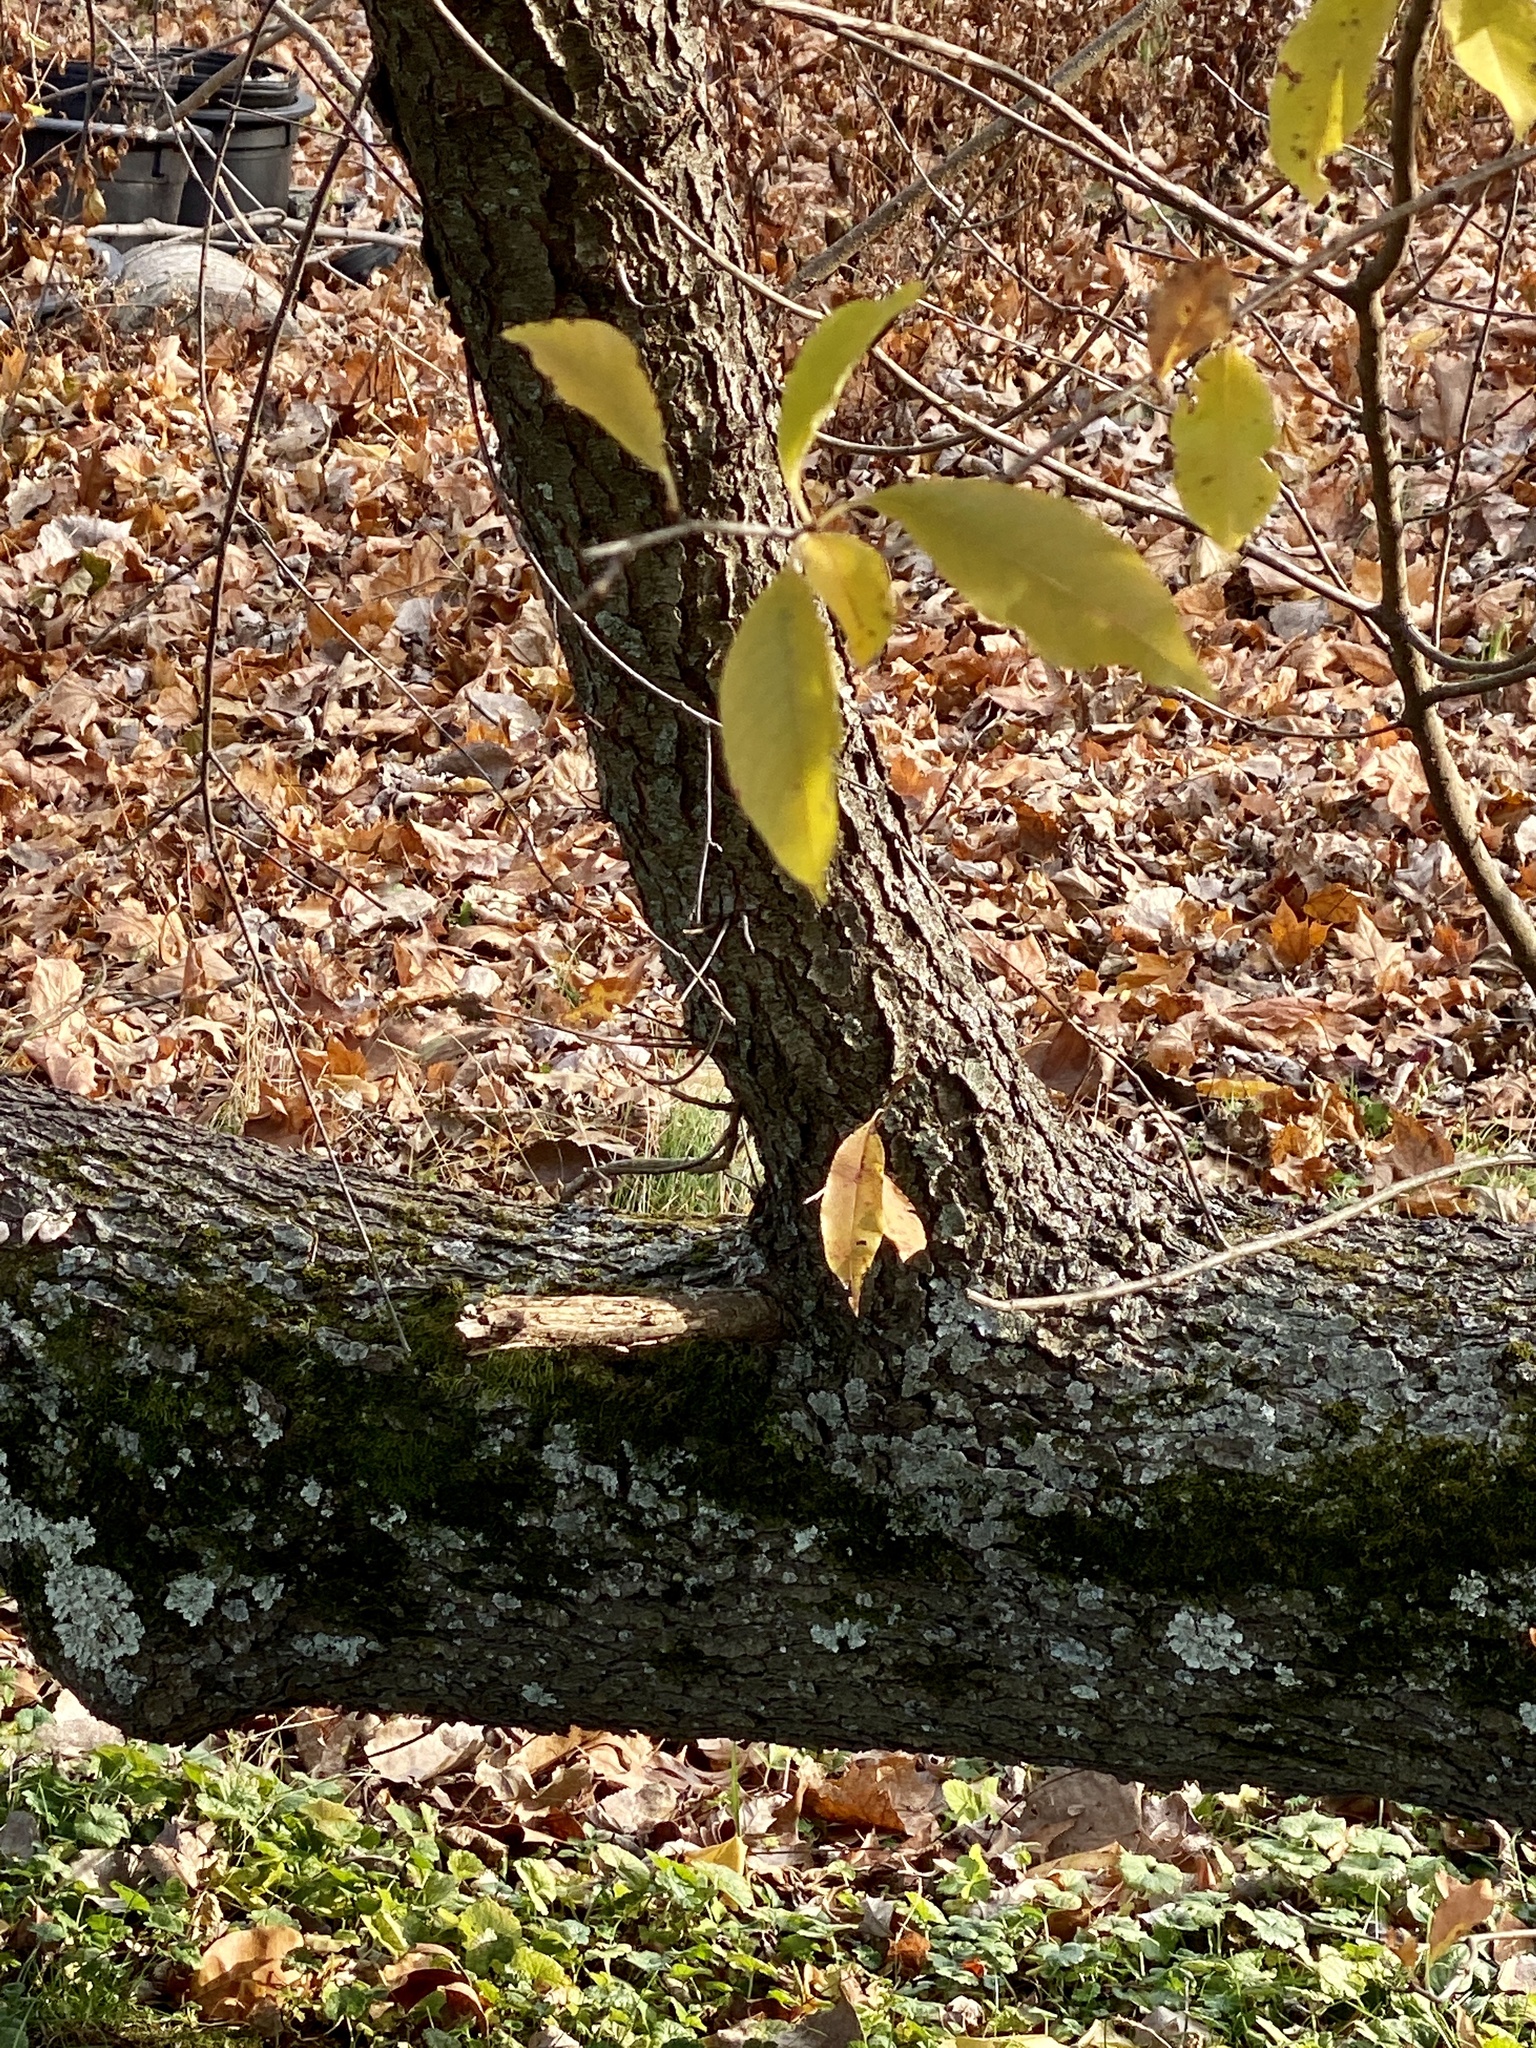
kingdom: Plantae
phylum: Tracheophyta
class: Magnoliopsida
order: Rosales
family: Rosaceae
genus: Prunus
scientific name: Prunus serotina
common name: Black cherry
